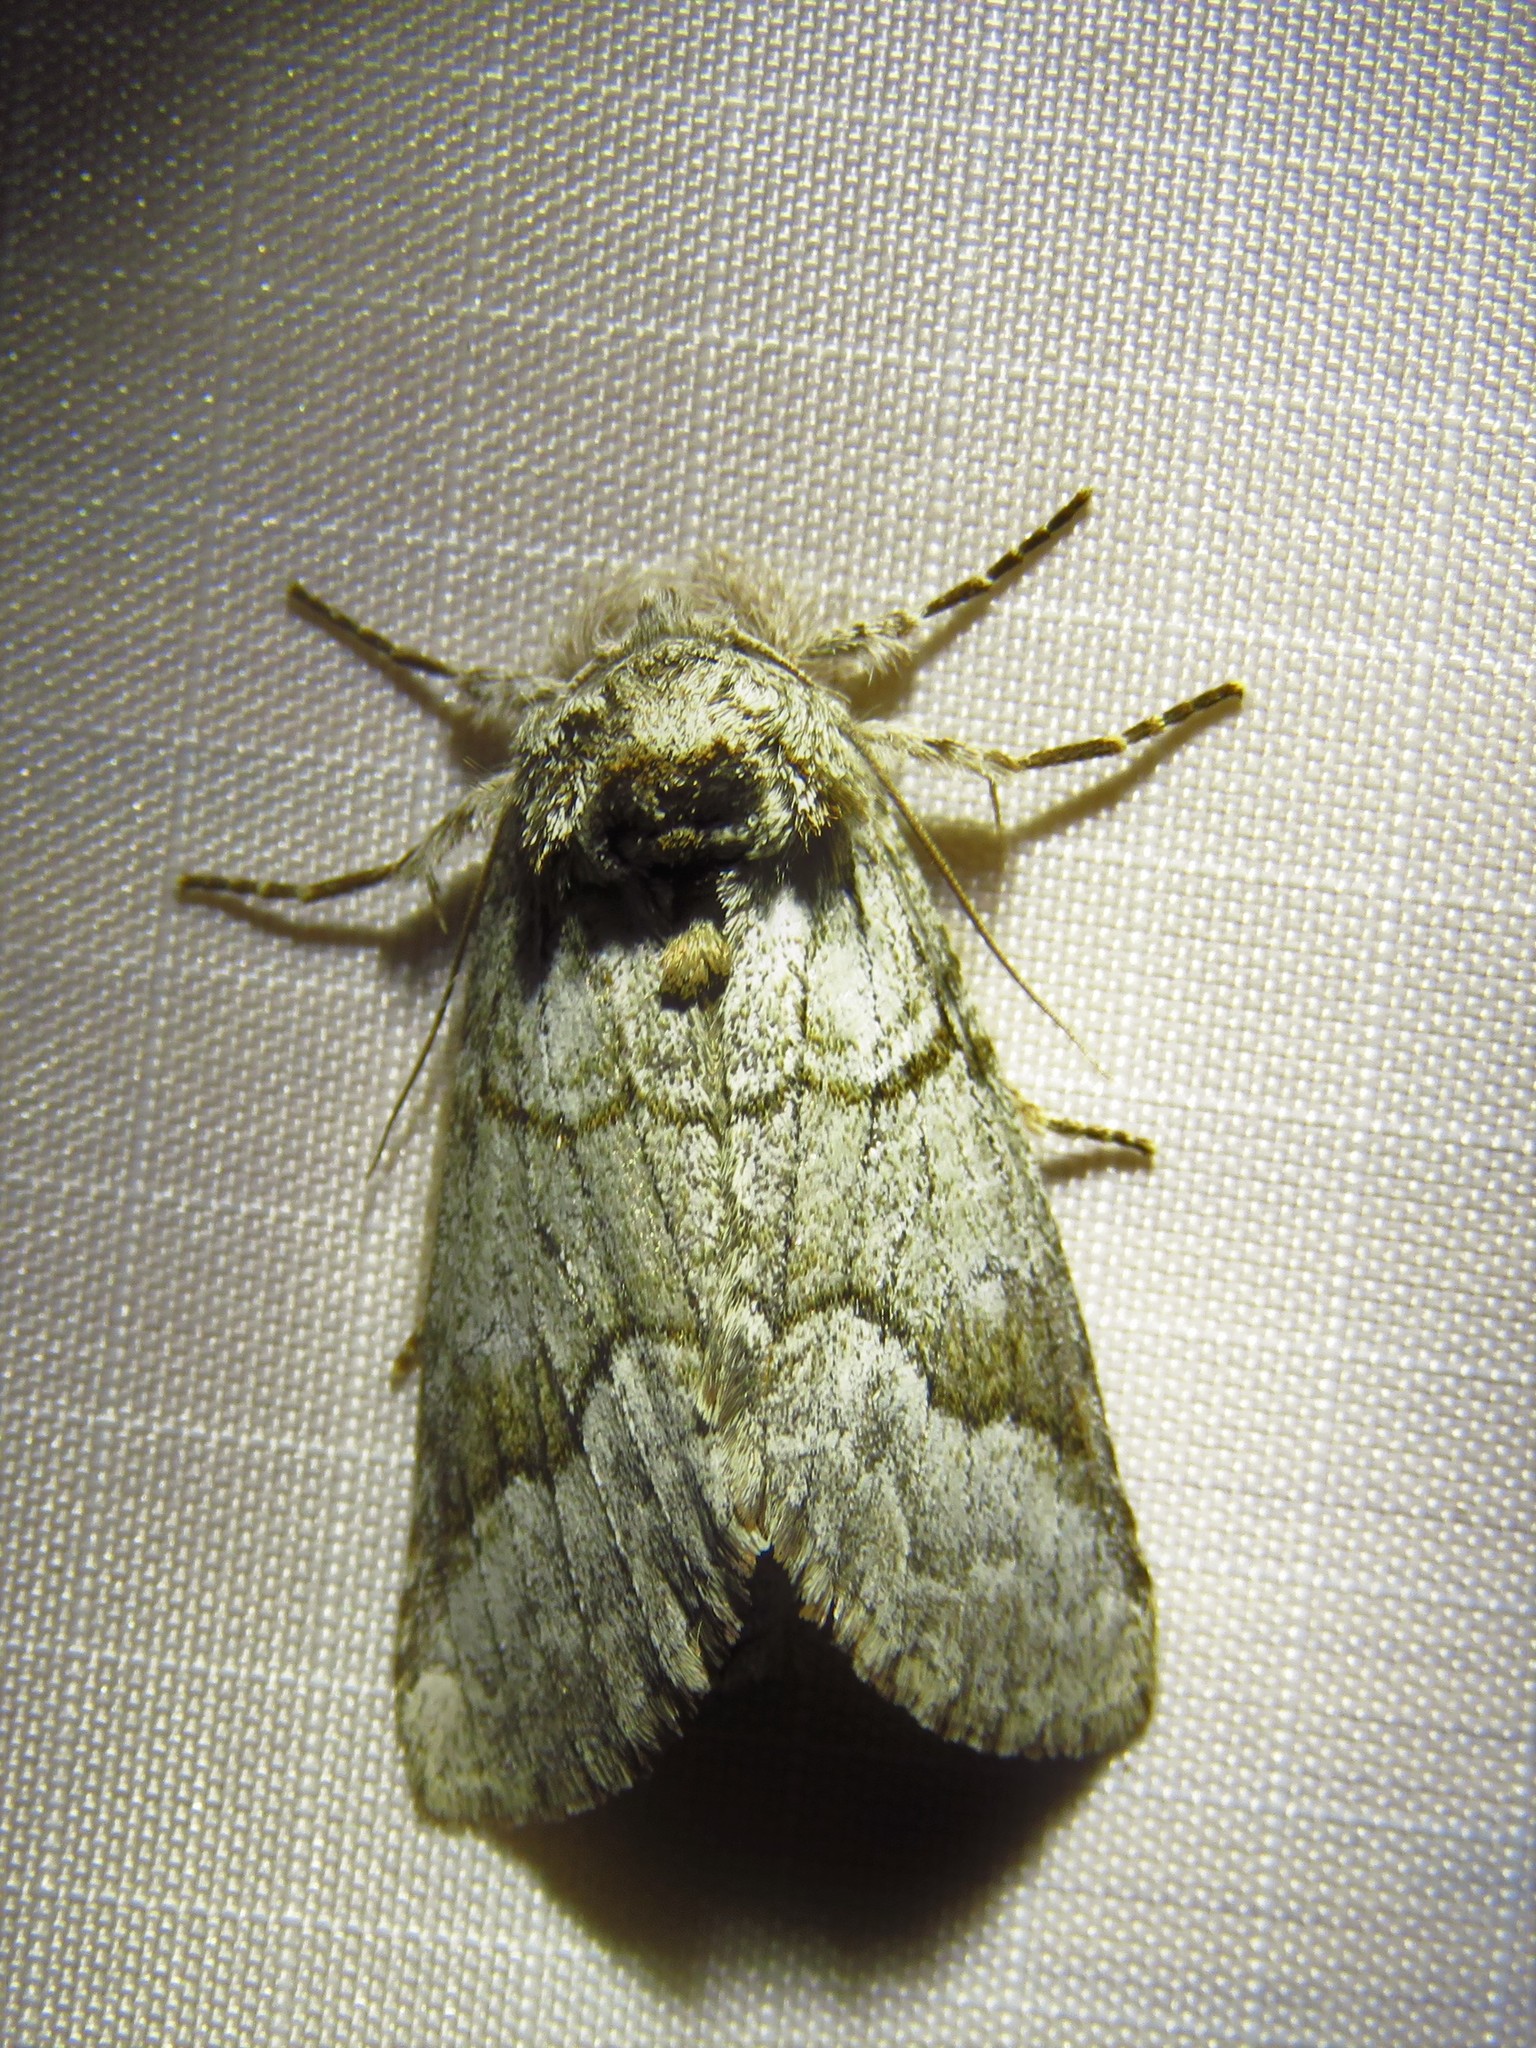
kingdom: Animalia
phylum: Arthropoda
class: Insecta
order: Lepidoptera
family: Notodontidae
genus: Lochmaeus
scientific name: Lochmaeus bilineata
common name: Double-lined prominent
